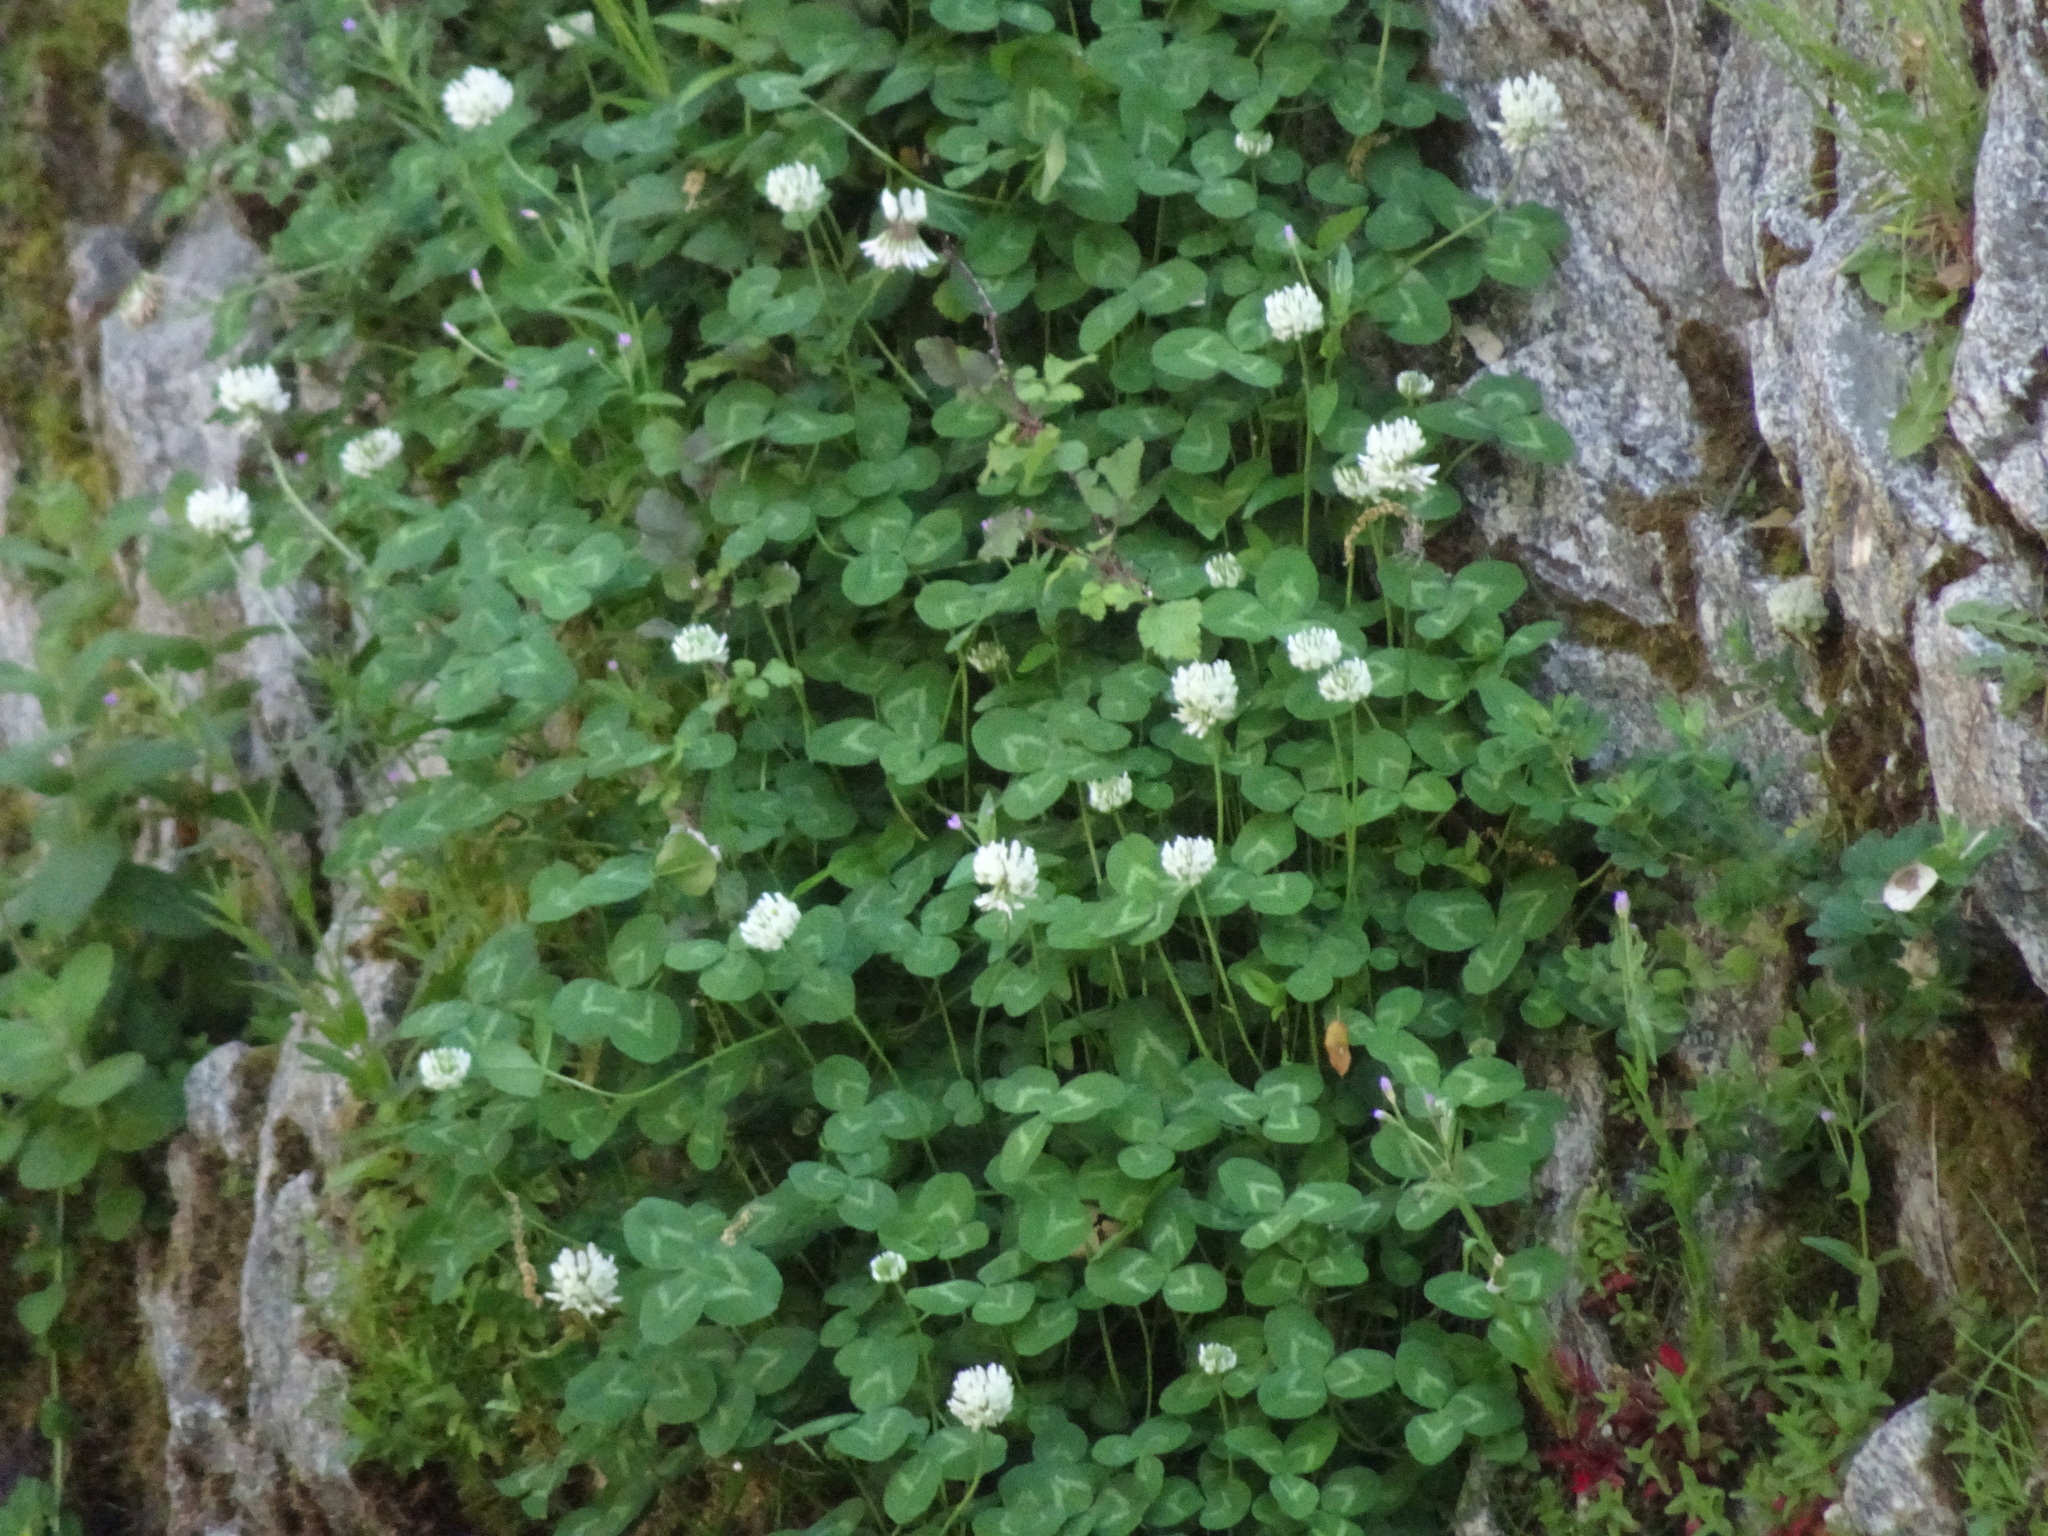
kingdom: Plantae
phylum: Tracheophyta
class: Magnoliopsida
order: Fabales
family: Fabaceae
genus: Trifolium
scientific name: Trifolium repens
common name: White clover
